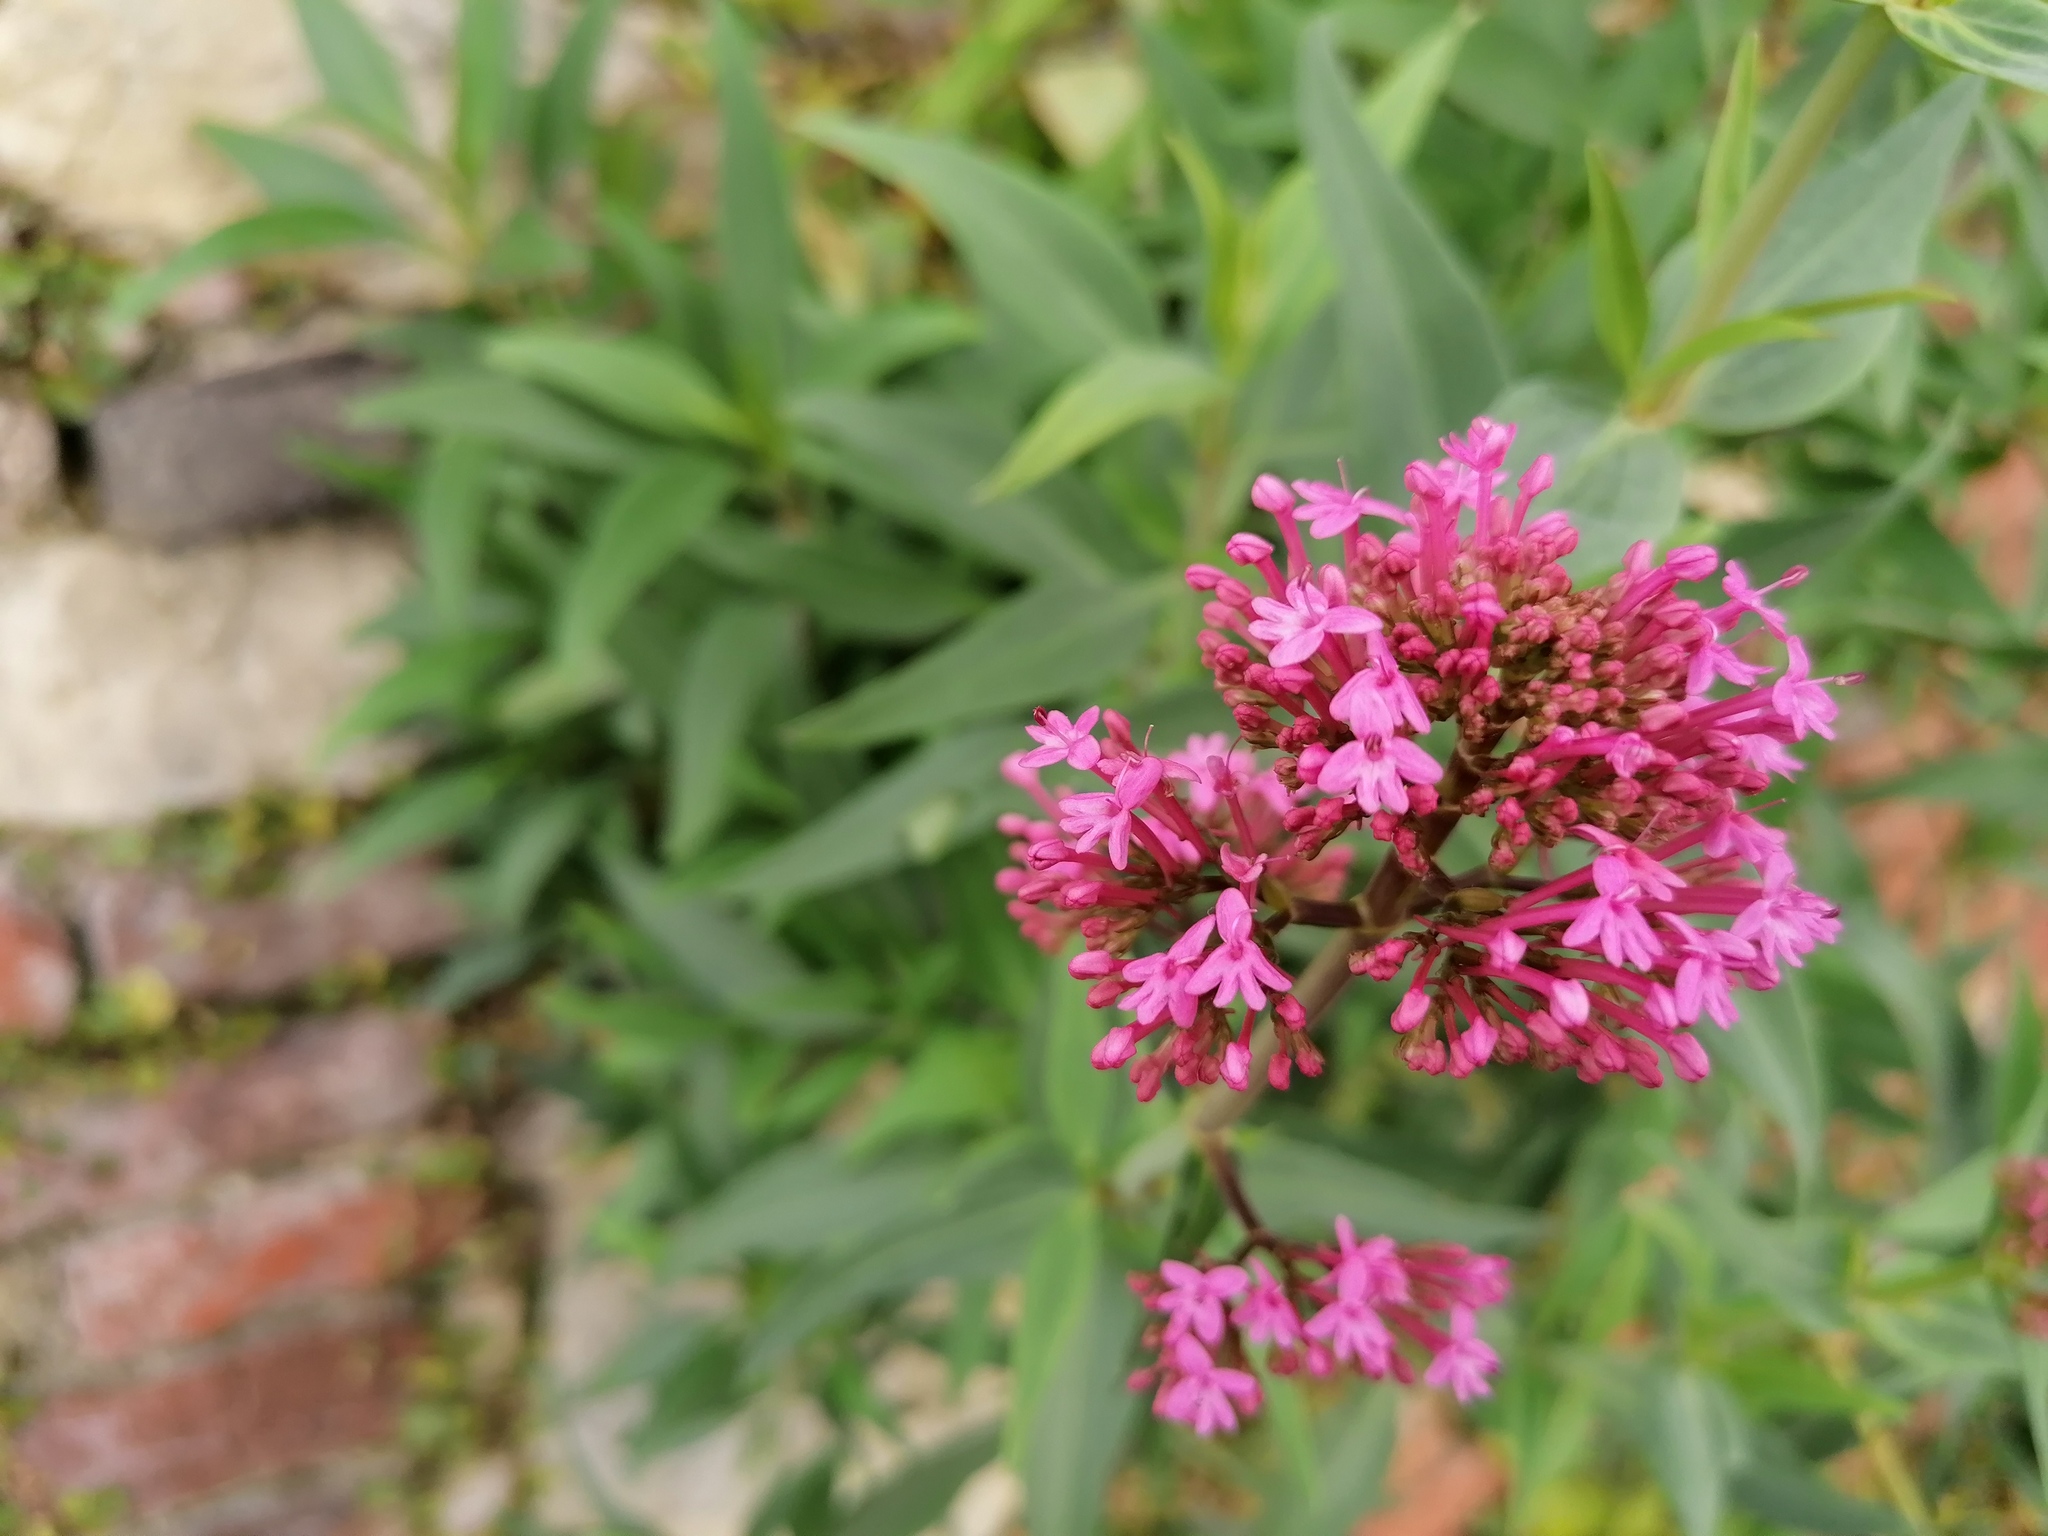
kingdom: Plantae
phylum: Tracheophyta
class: Magnoliopsida
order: Dipsacales
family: Caprifoliaceae
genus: Centranthus
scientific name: Centranthus ruber
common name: Red valerian
